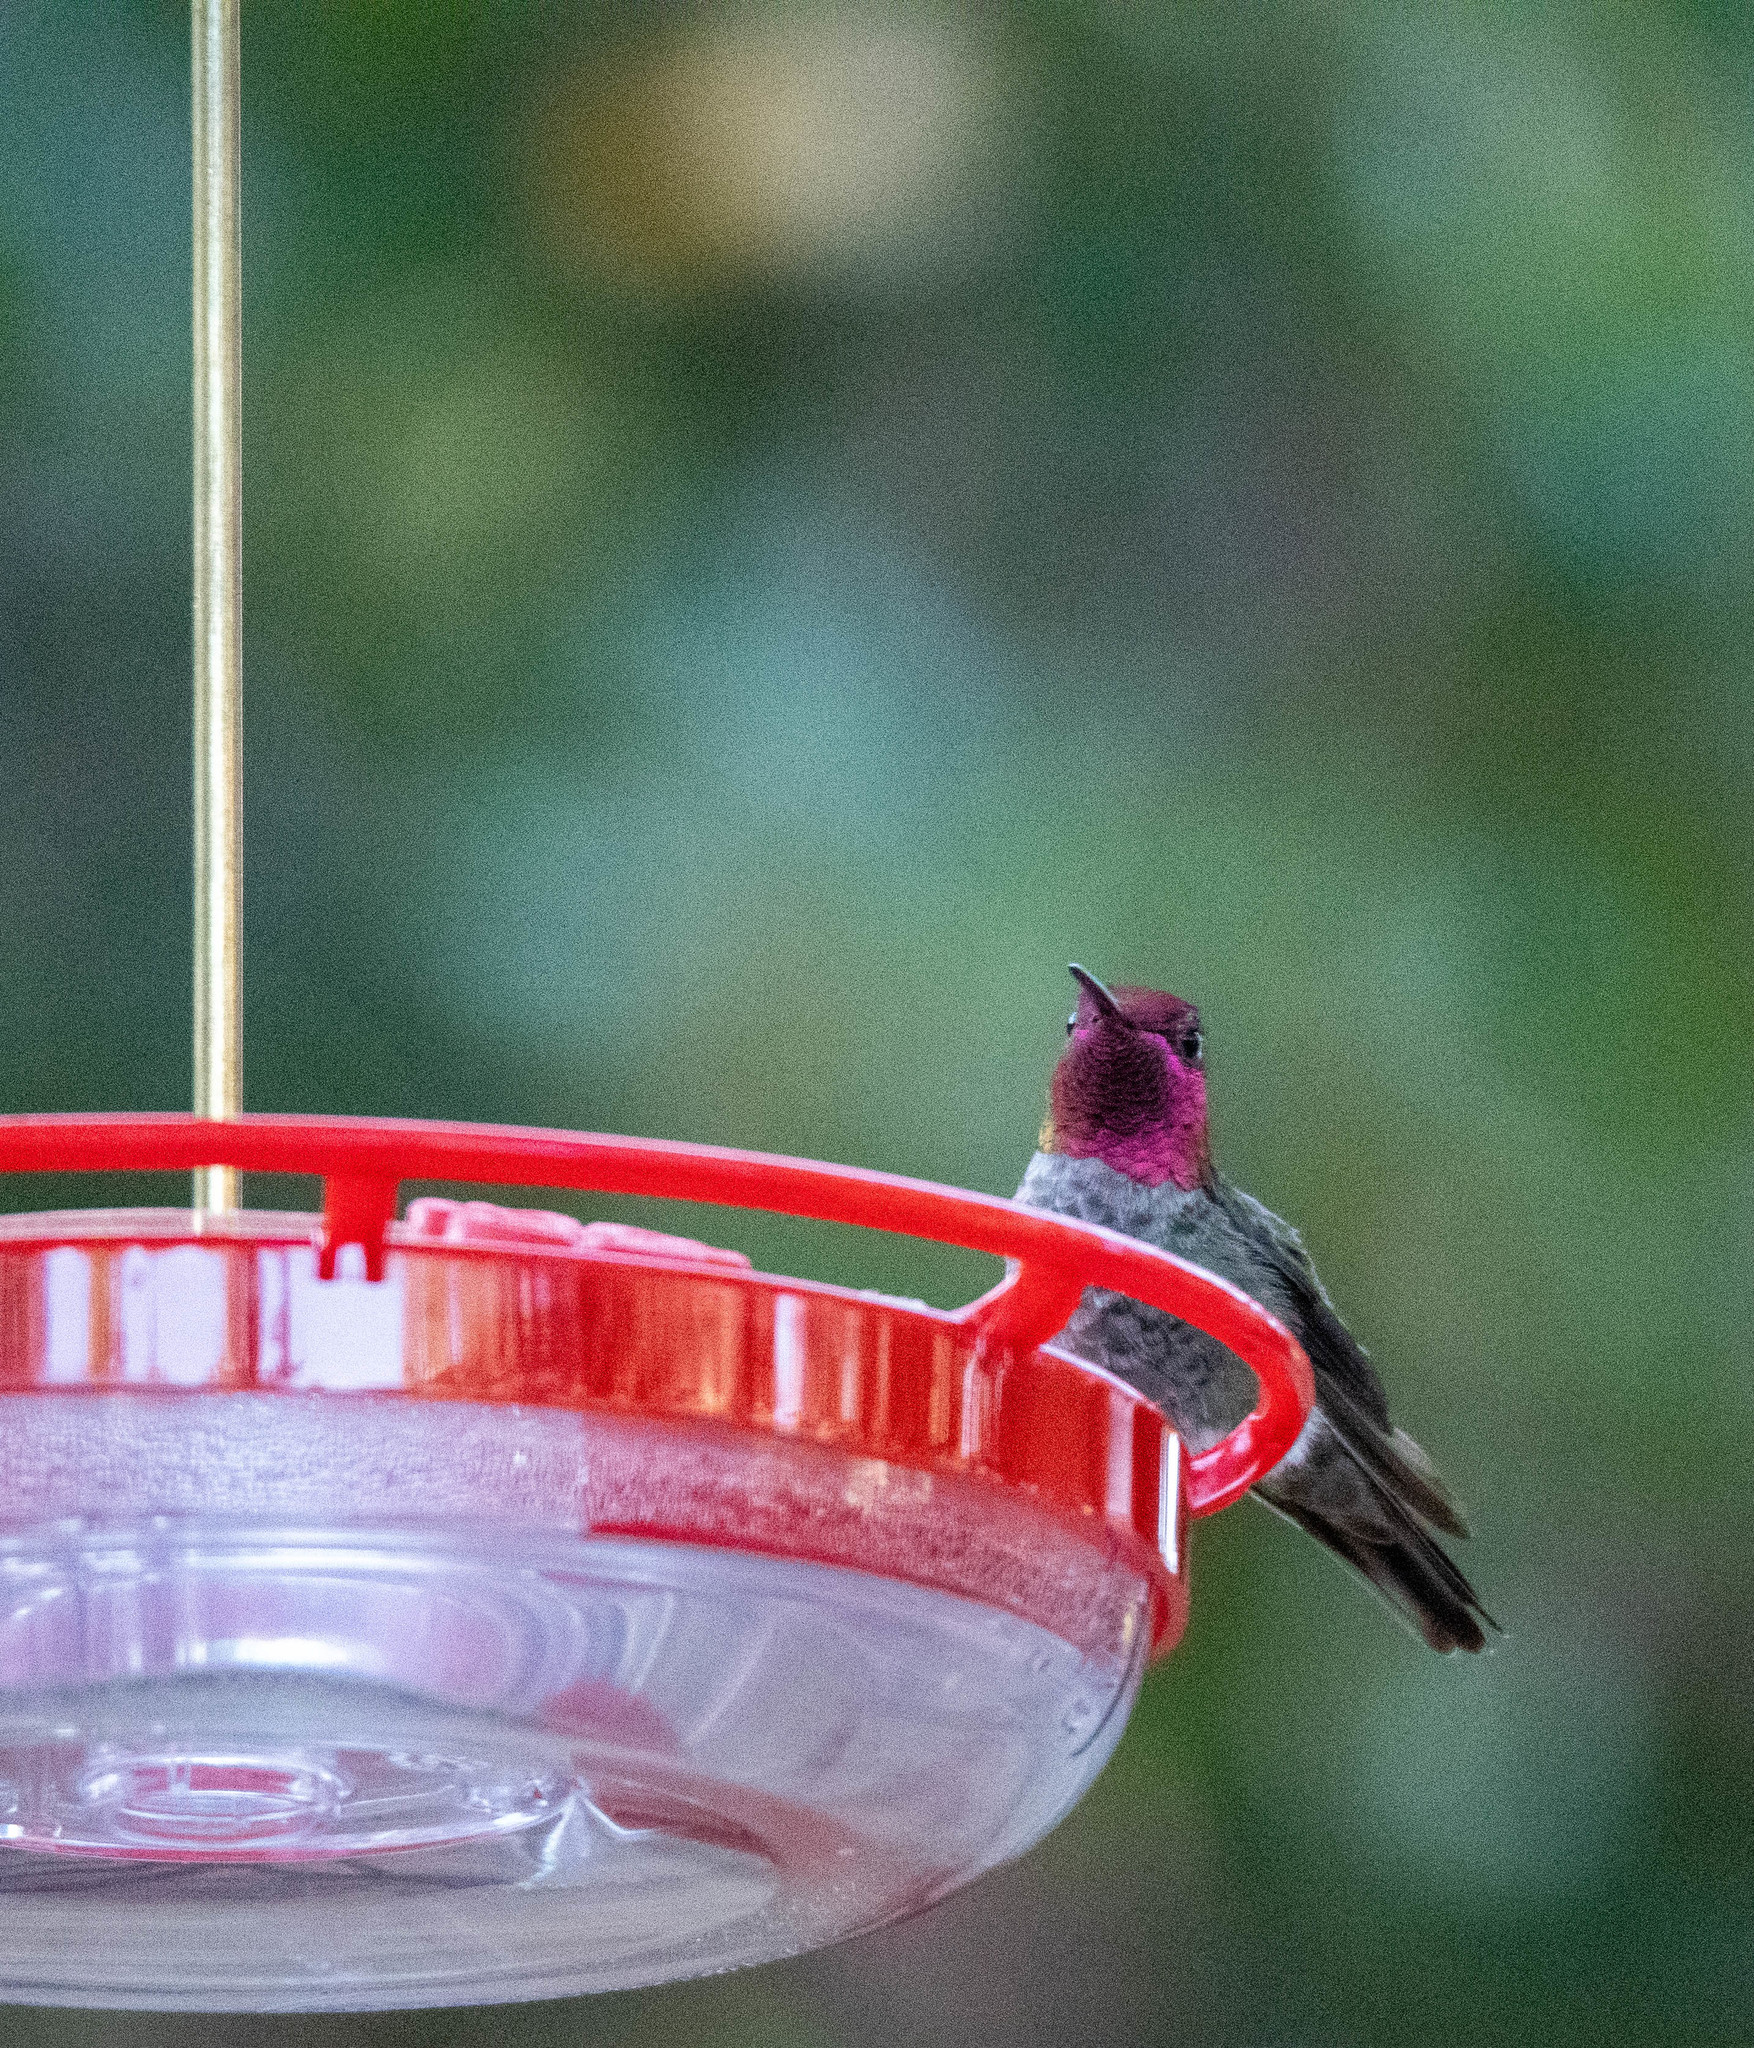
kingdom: Animalia
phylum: Chordata
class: Aves
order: Apodiformes
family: Trochilidae
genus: Calypte
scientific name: Calypte anna
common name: Anna's hummingbird
